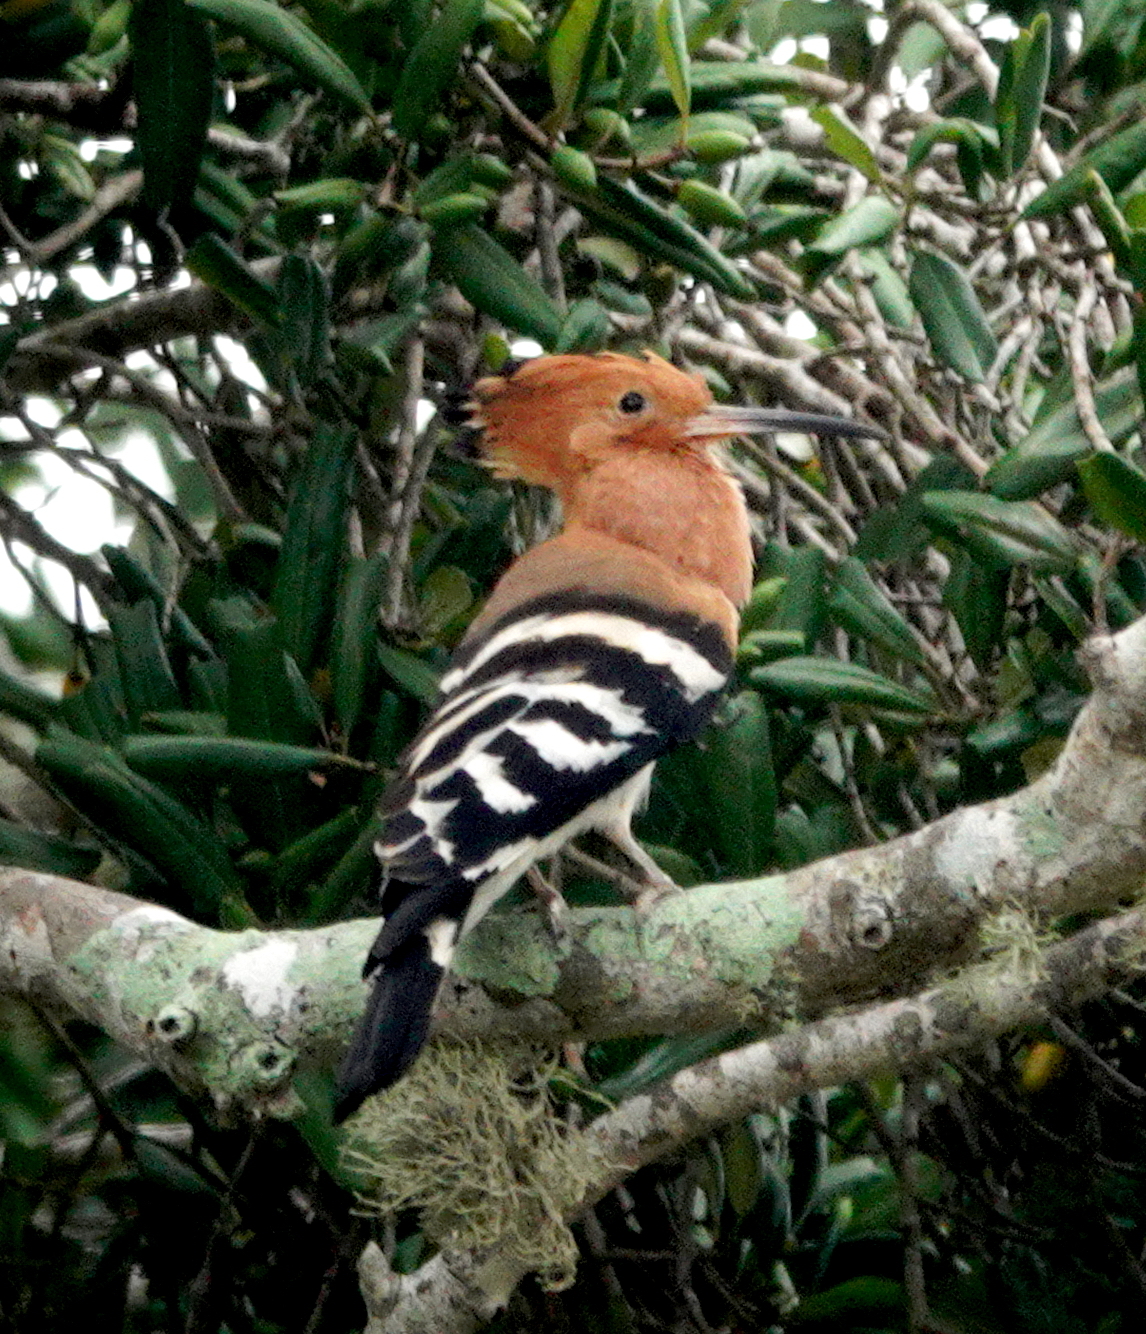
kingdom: Animalia
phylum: Chordata
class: Aves
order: Bucerotiformes
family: Upupidae
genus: Upupa
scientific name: Upupa epops
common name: Eurasian hoopoe
